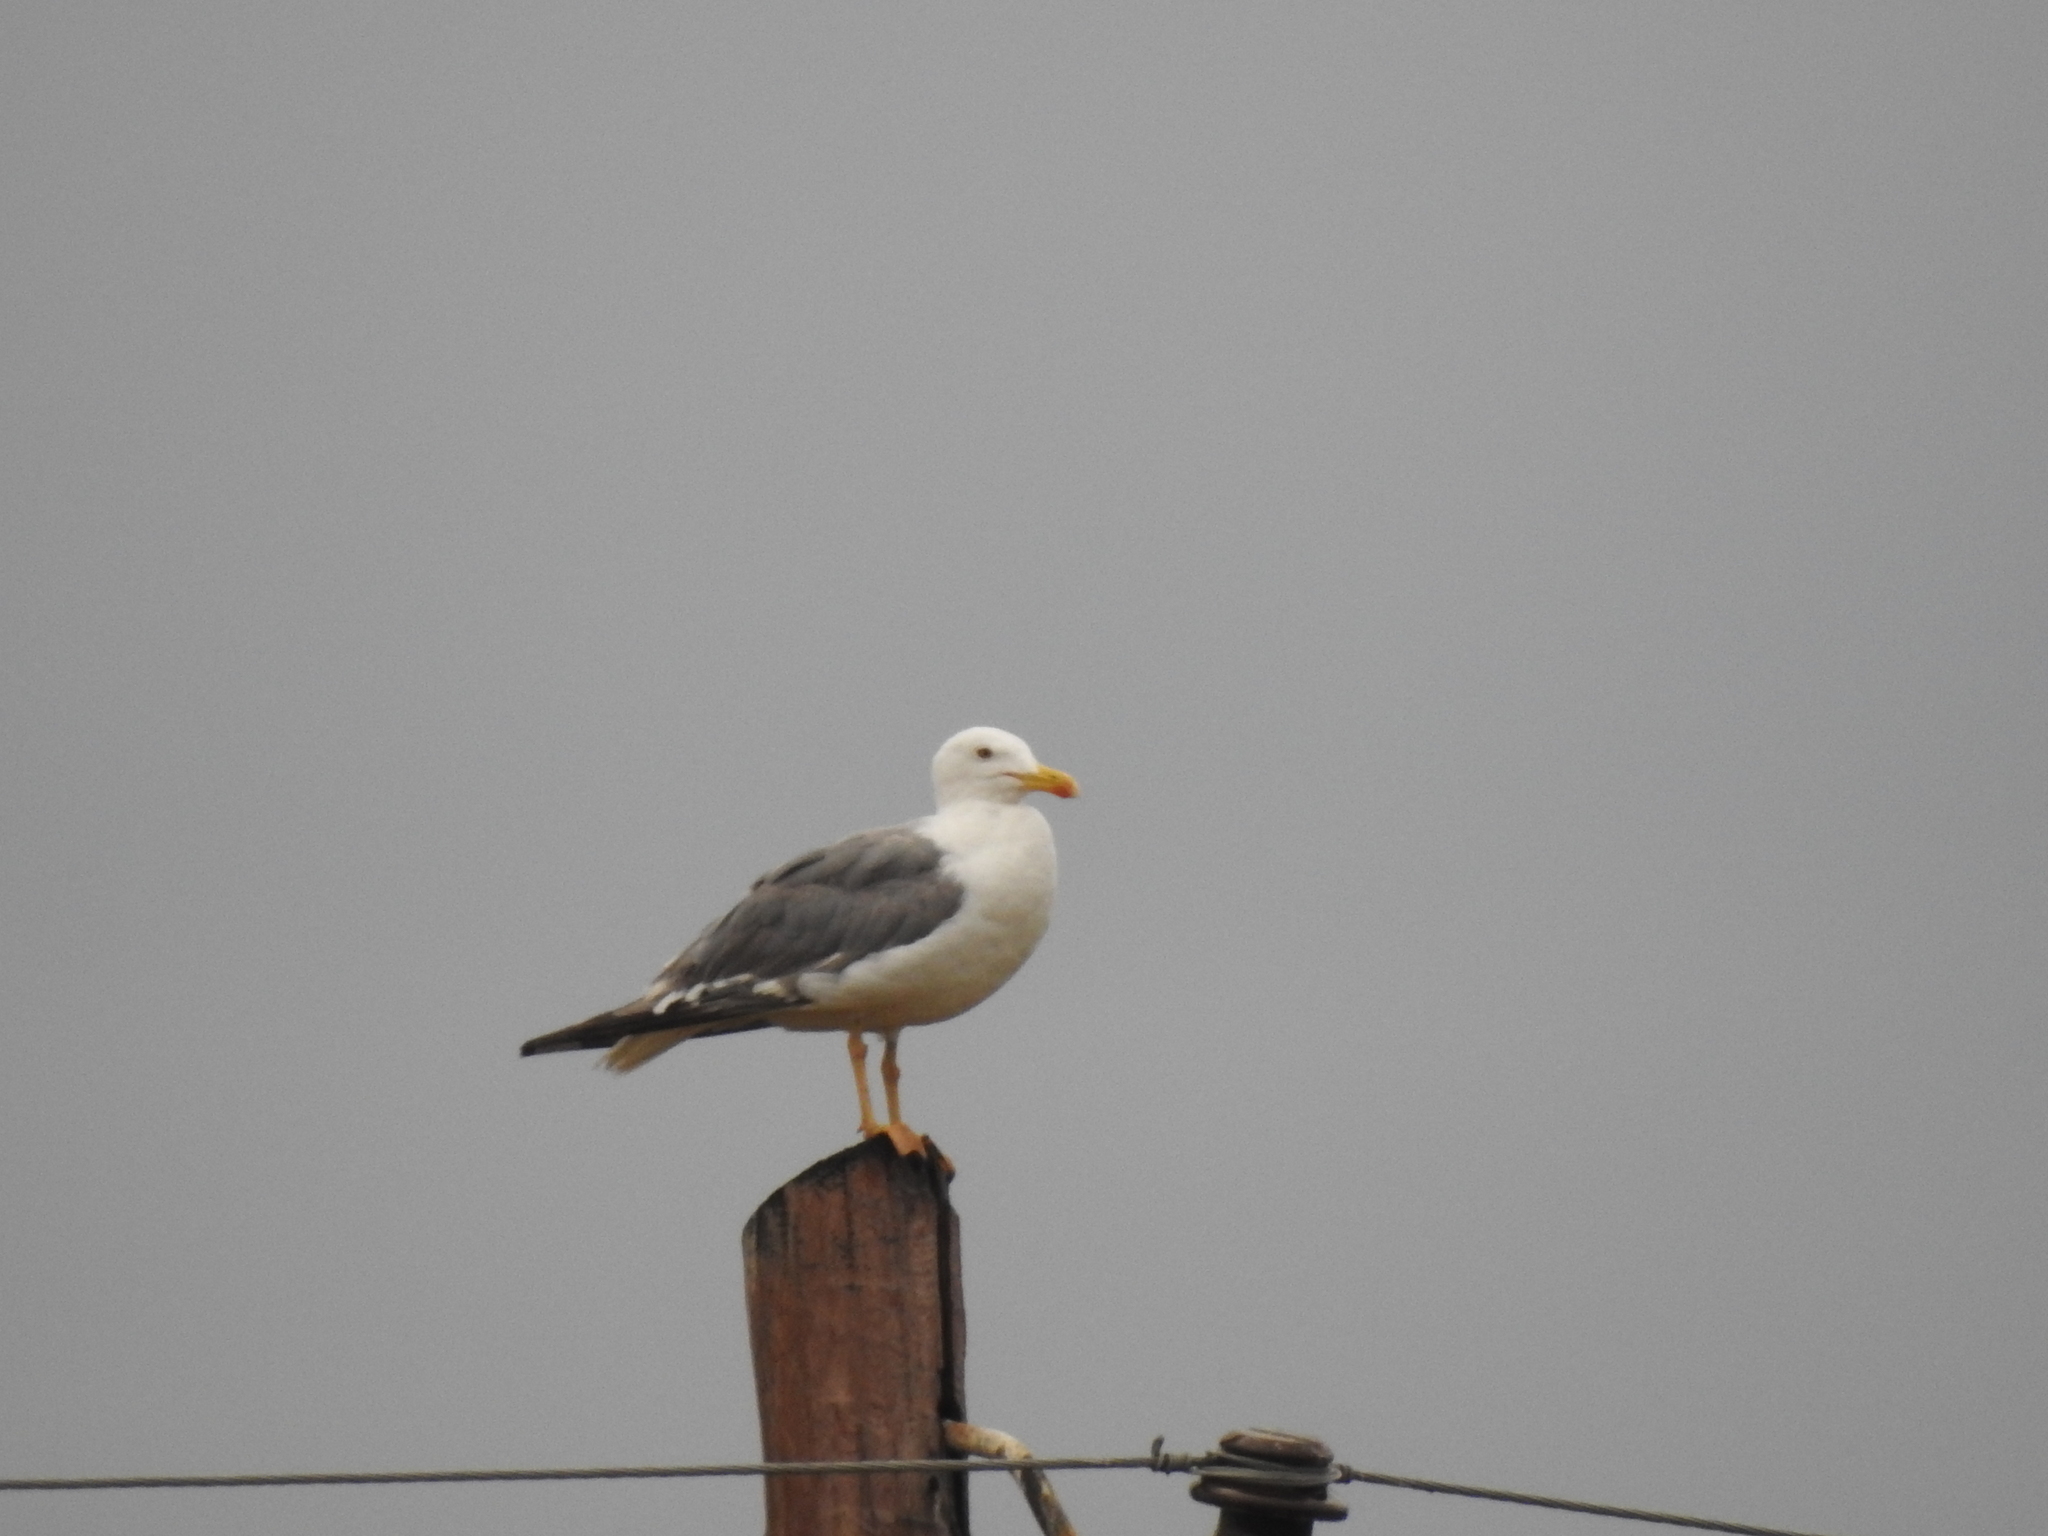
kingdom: Animalia
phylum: Chordata
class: Aves
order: Charadriiformes
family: Laridae
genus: Larus
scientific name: Larus fuscus
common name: Lesser black-backed gull
